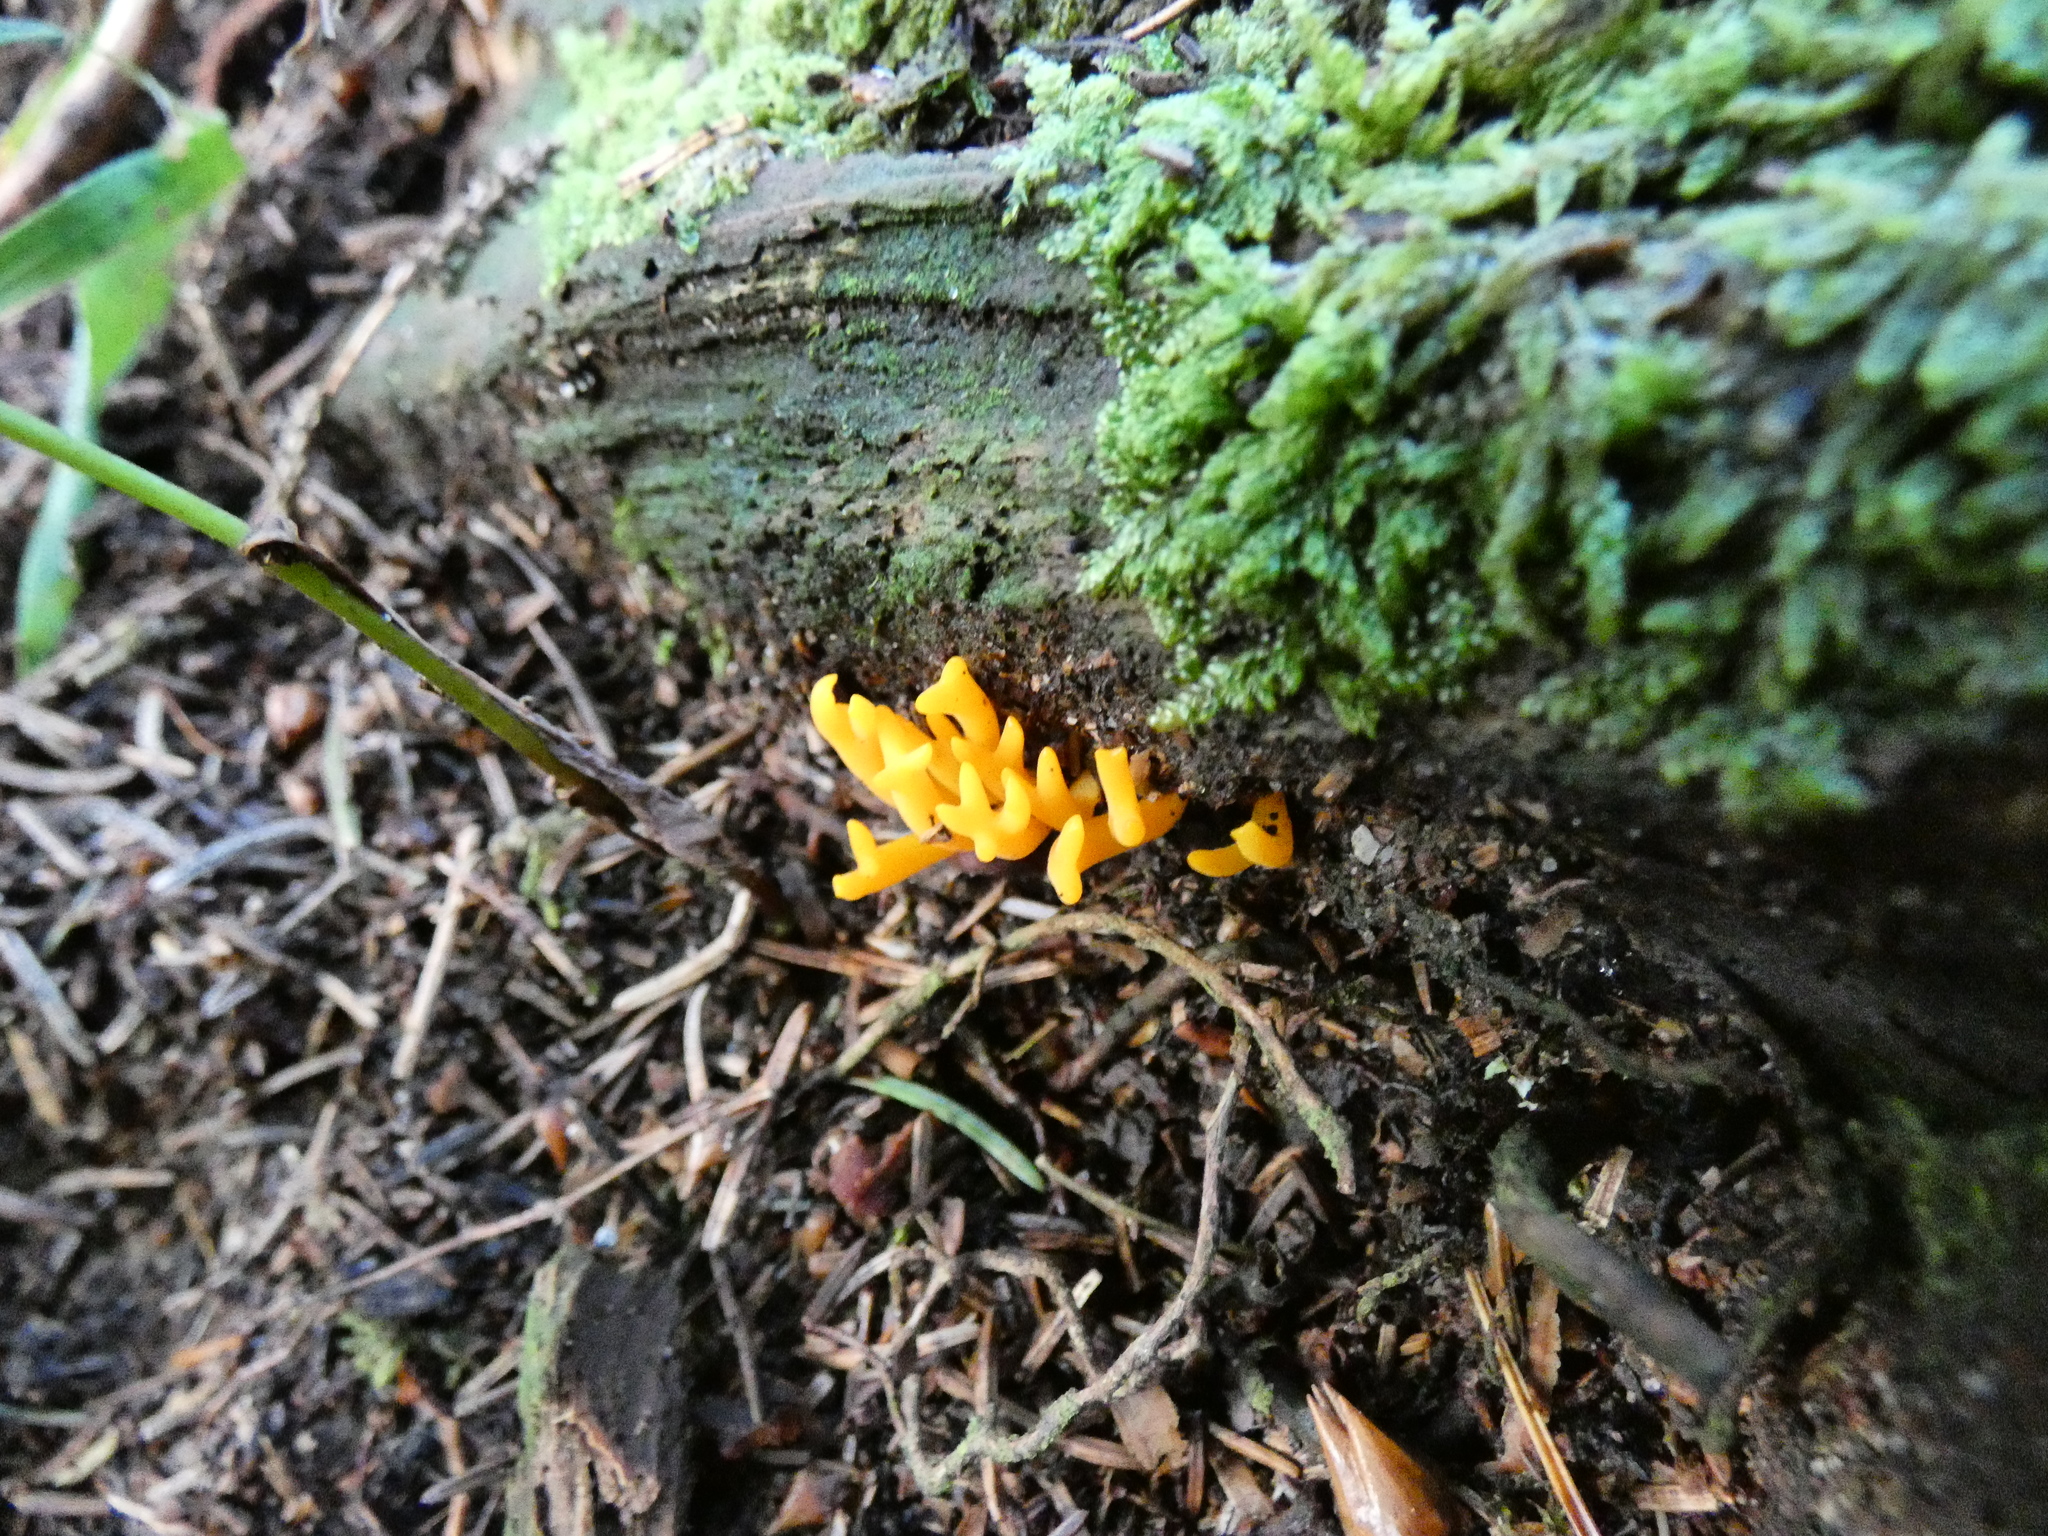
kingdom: Fungi
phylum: Basidiomycota
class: Dacrymycetes
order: Dacrymycetales
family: Dacrymycetaceae
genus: Calocera
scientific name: Calocera viscosa
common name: Yellow stagshorn
